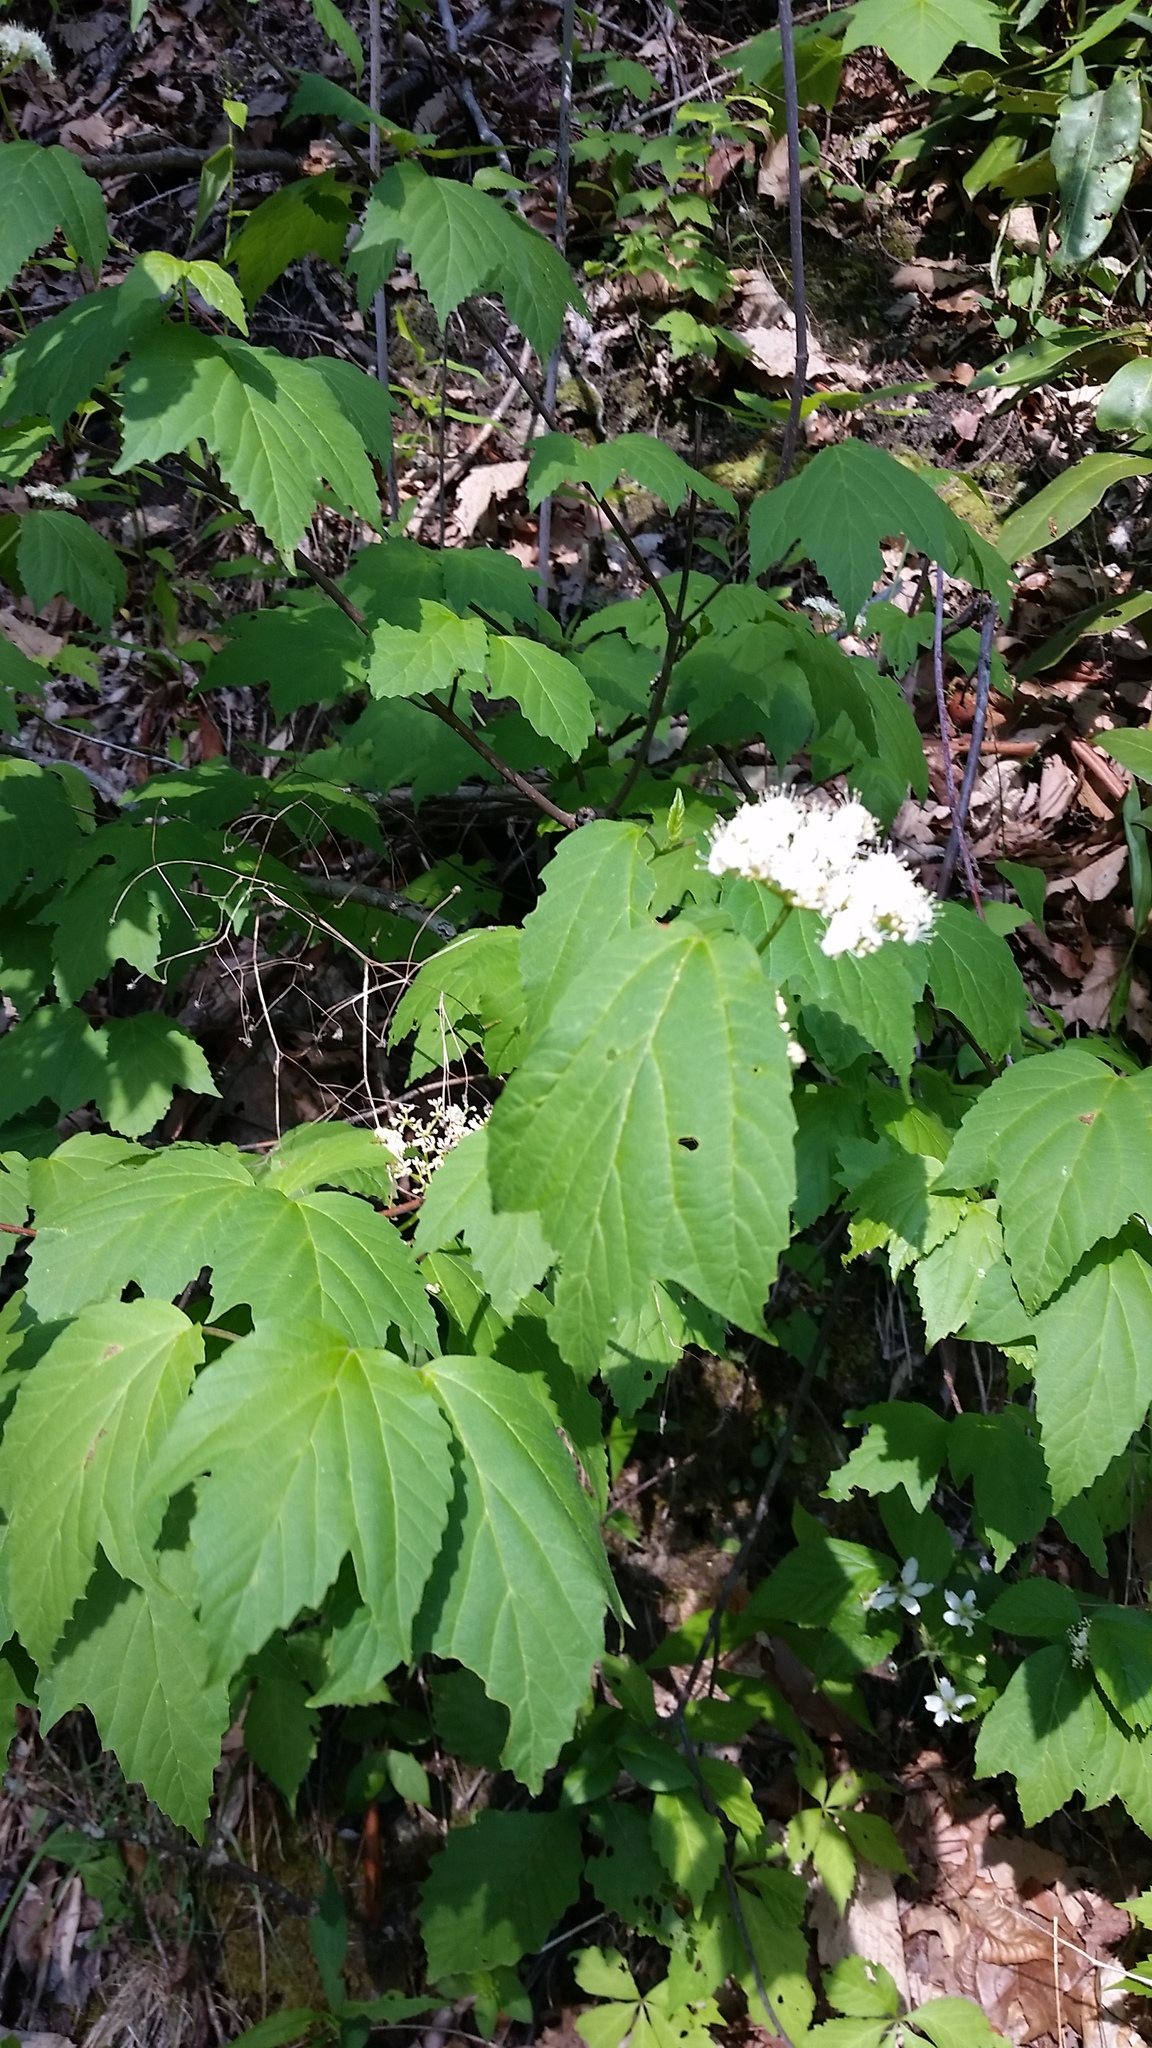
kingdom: Plantae
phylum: Tracheophyta
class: Magnoliopsida
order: Dipsacales
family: Viburnaceae
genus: Viburnum
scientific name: Viburnum acerifolium
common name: Dockmackie
